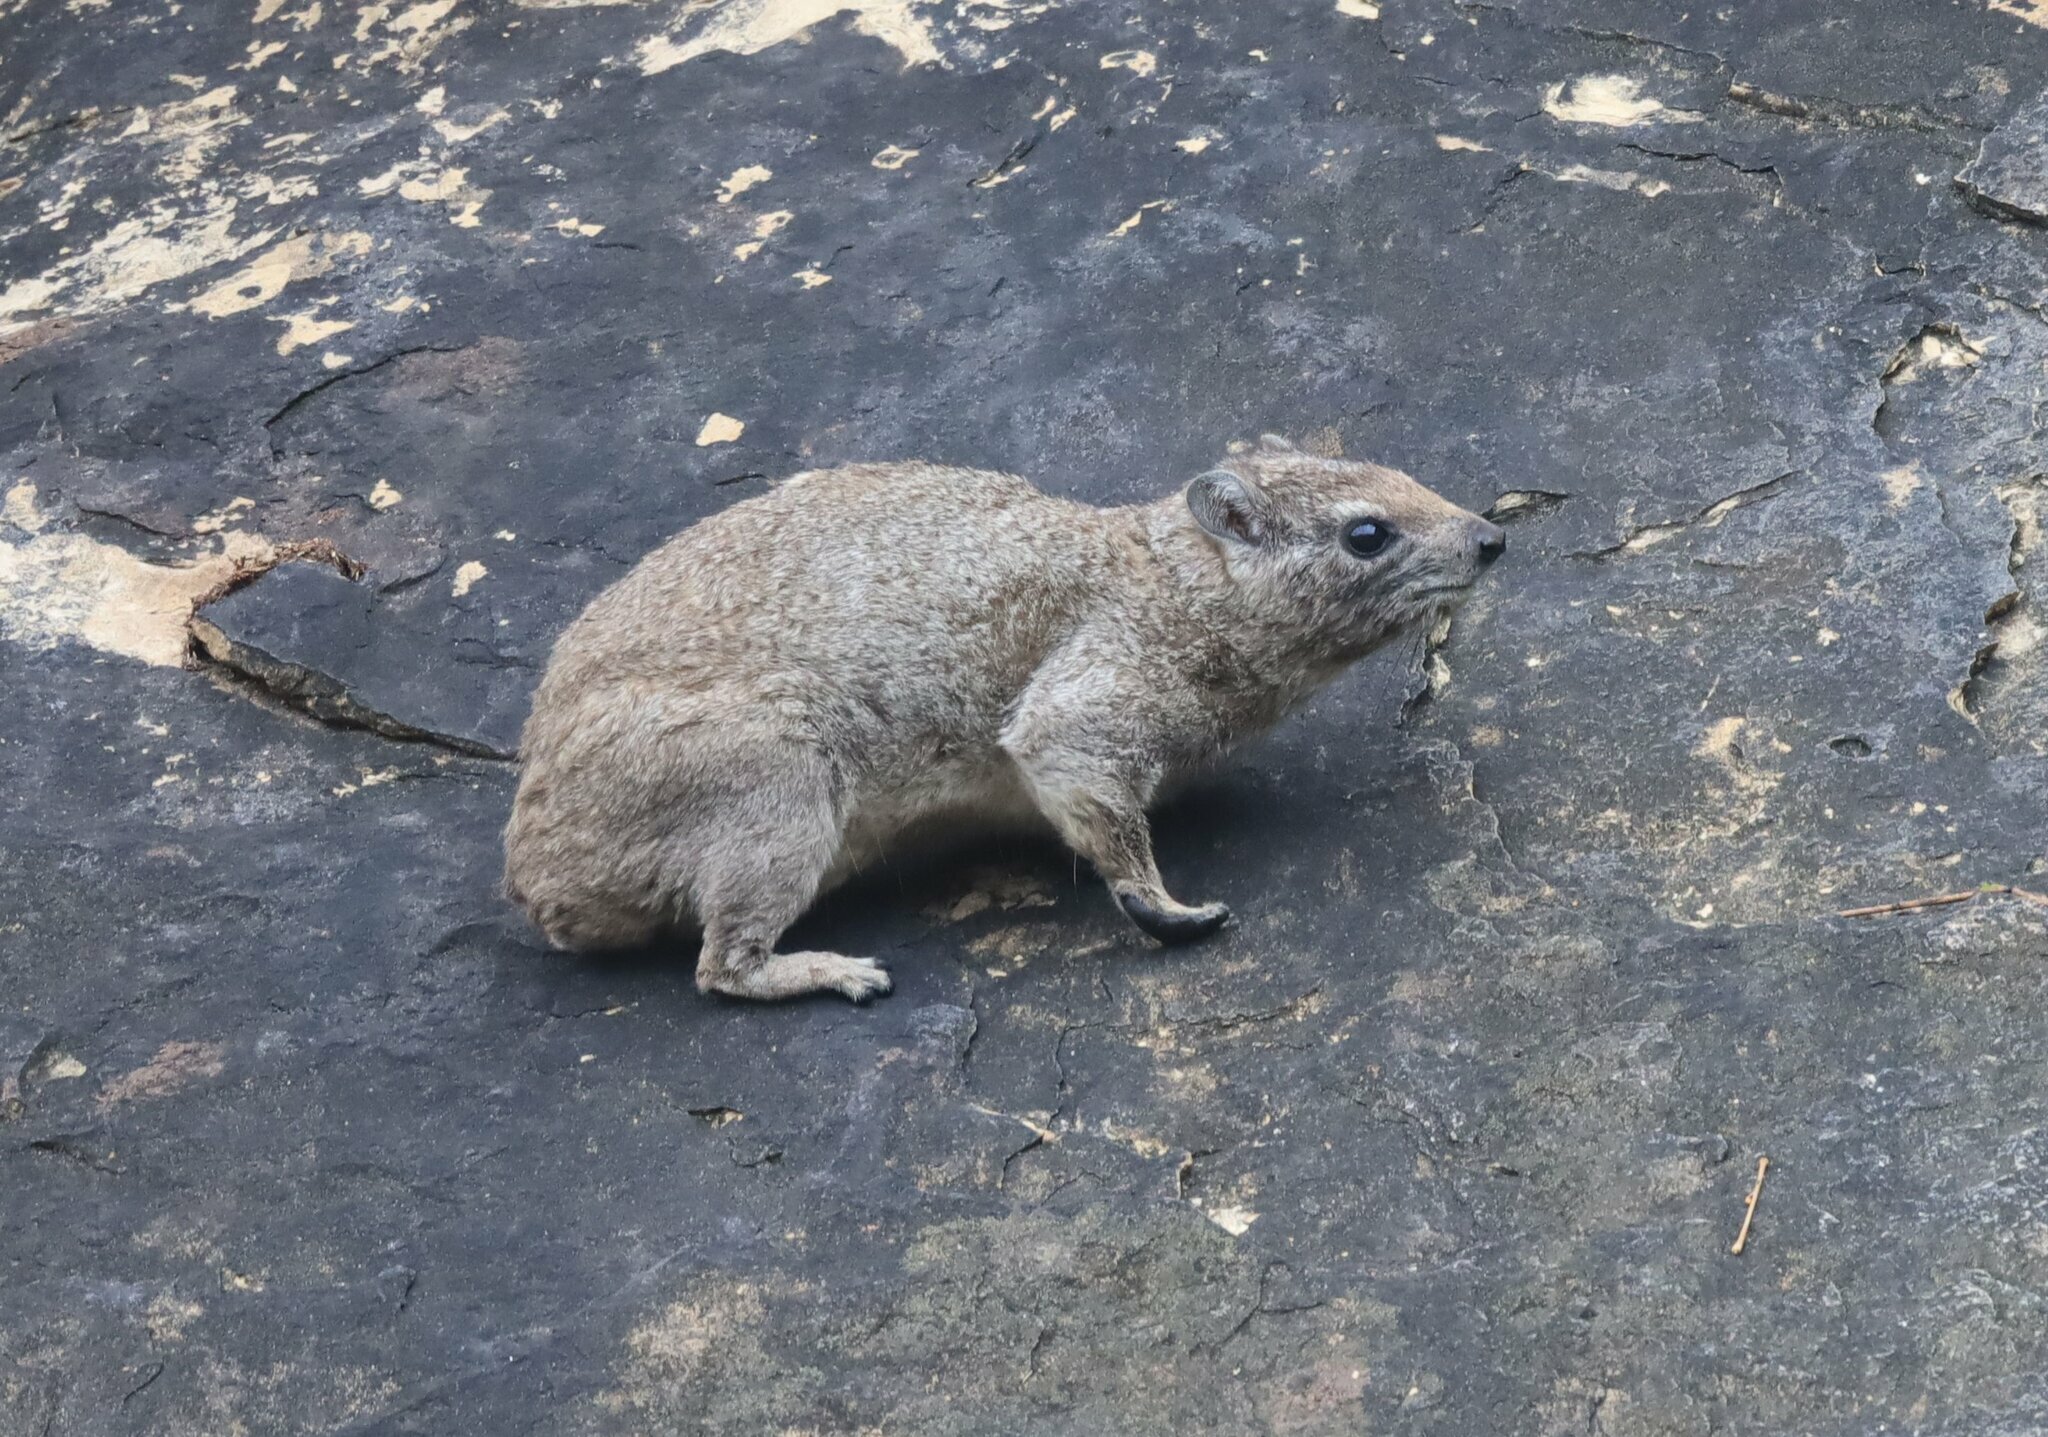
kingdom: Animalia
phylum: Chordata
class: Mammalia
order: Hyracoidea
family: Procaviidae
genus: Heterohyrax
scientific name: Heterohyrax brucei
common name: Bush hyrax
